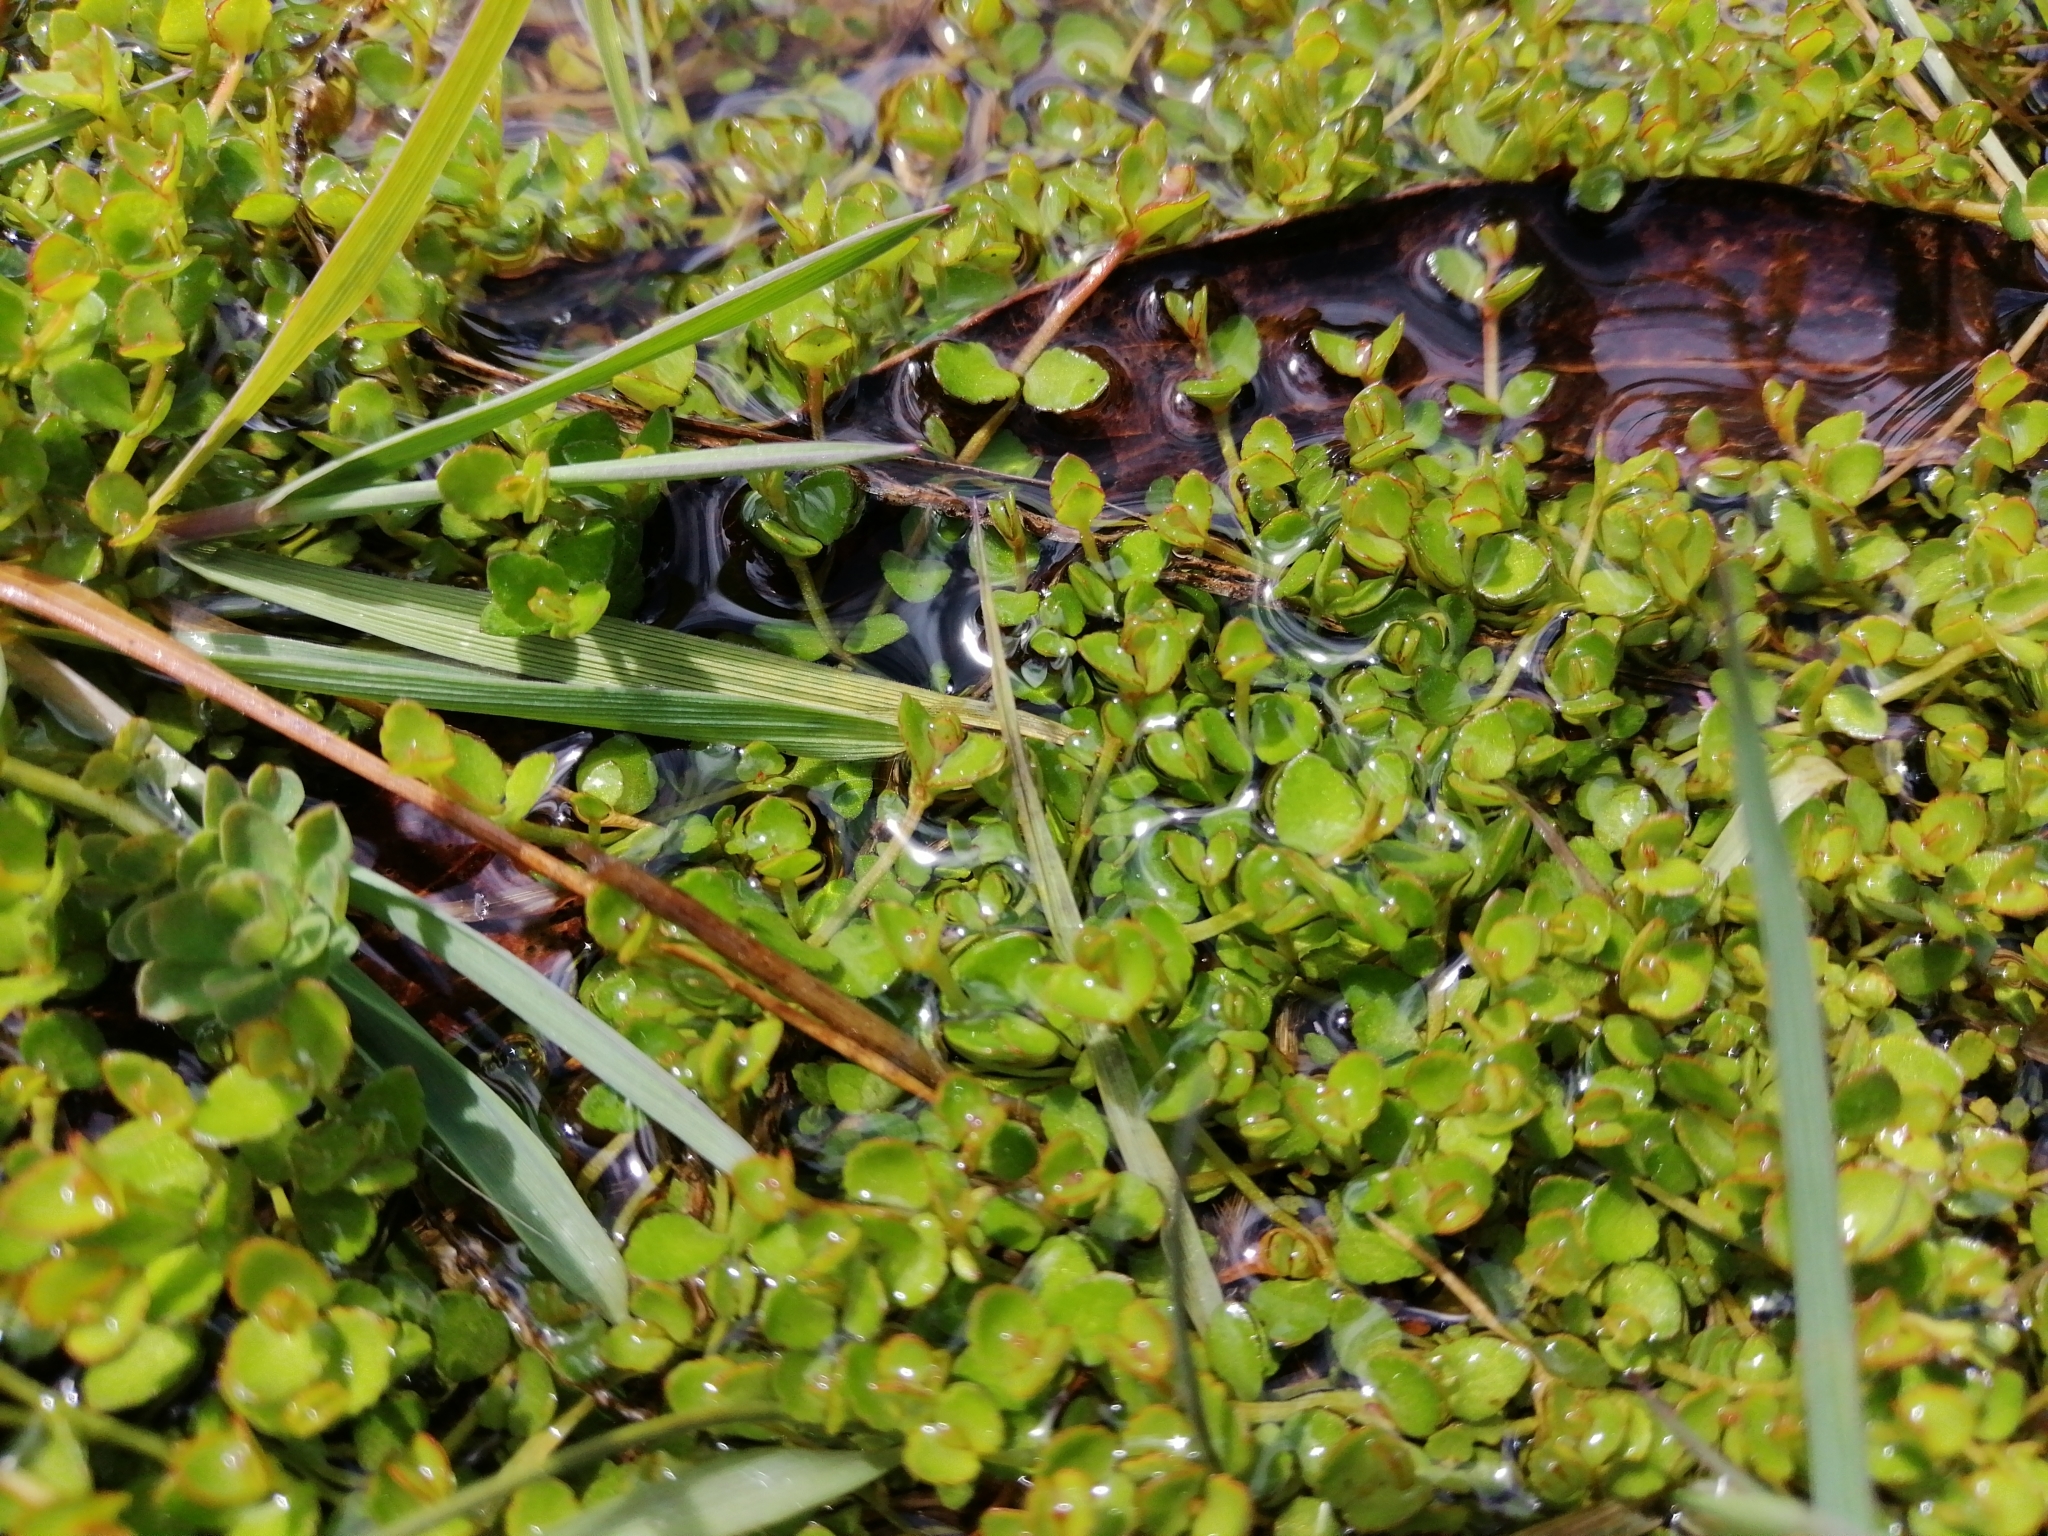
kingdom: Plantae
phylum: Tracheophyta
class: Magnoliopsida
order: Saxifragales
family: Haloragaceae
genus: Gonocarpus
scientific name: Gonocarpus micranthus
